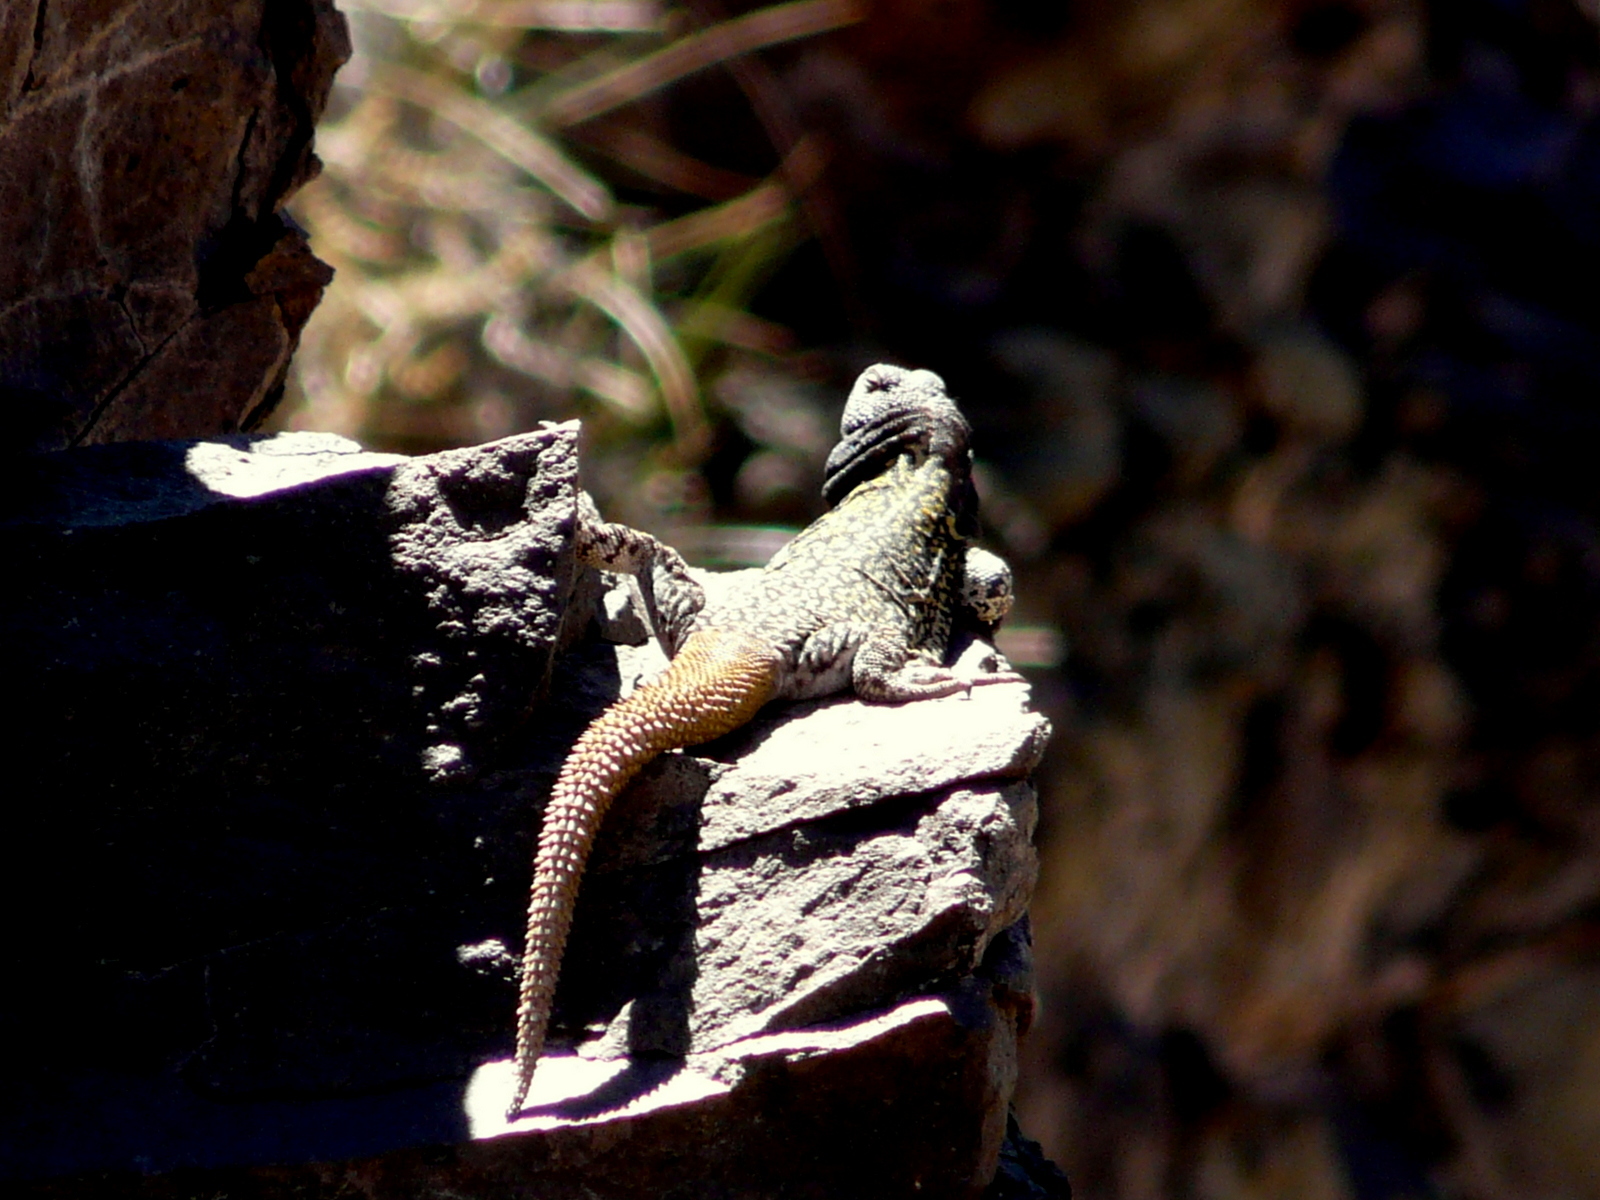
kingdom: Animalia
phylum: Chordata
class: Squamata
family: Liolaemidae
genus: Phymaturus
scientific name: Phymaturus palluma
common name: High mountain lizard
